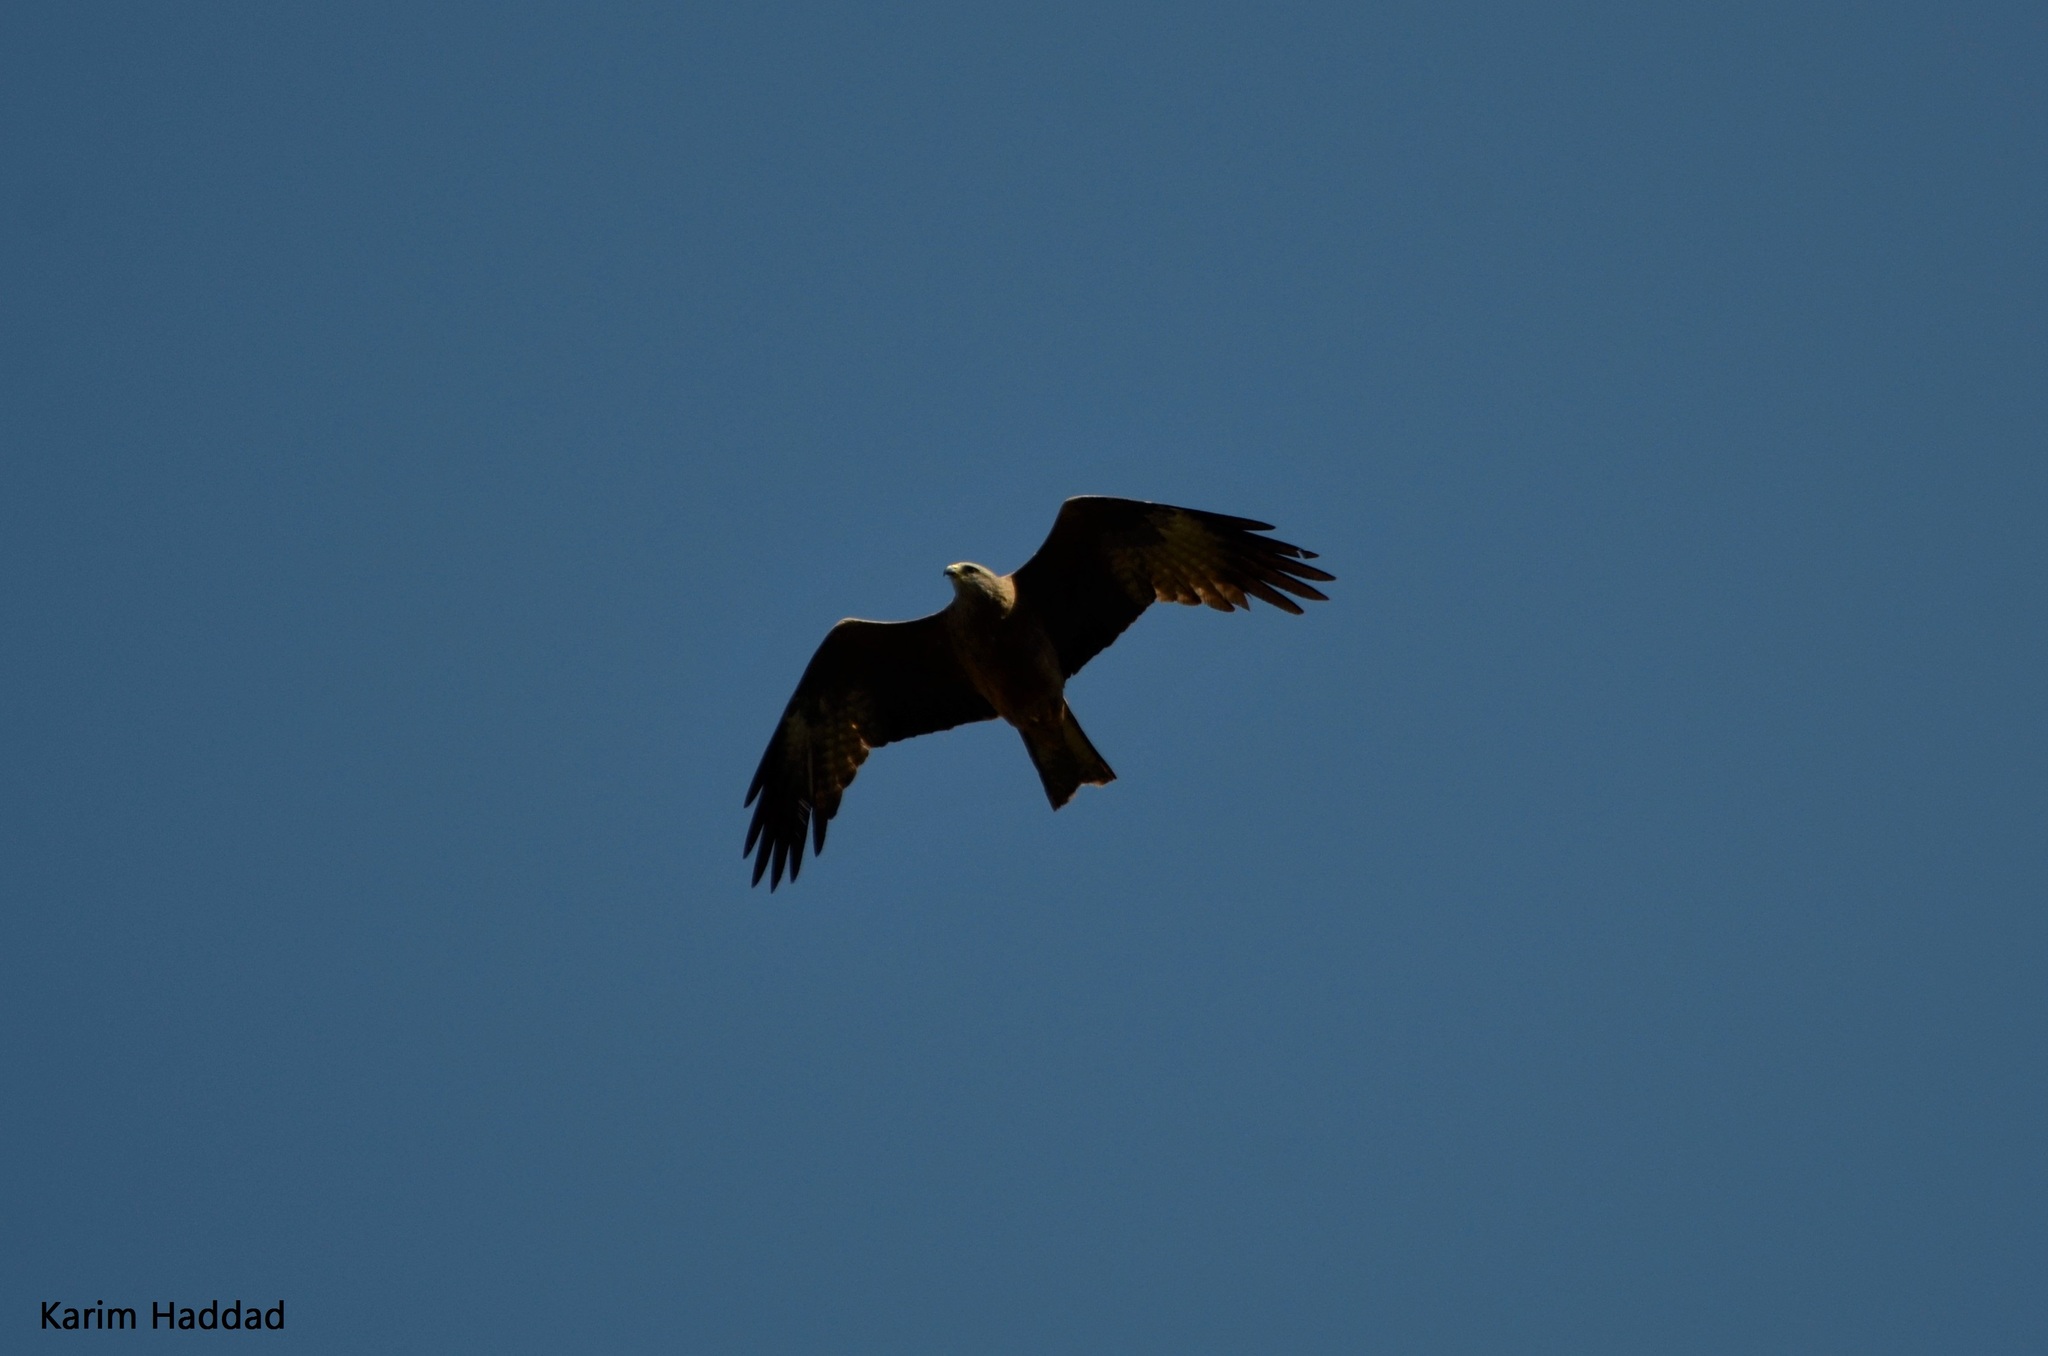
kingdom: Animalia
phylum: Chordata
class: Aves
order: Accipitriformes
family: Accipitridae
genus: Milvus
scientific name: Milvus migrans
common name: Black kite
